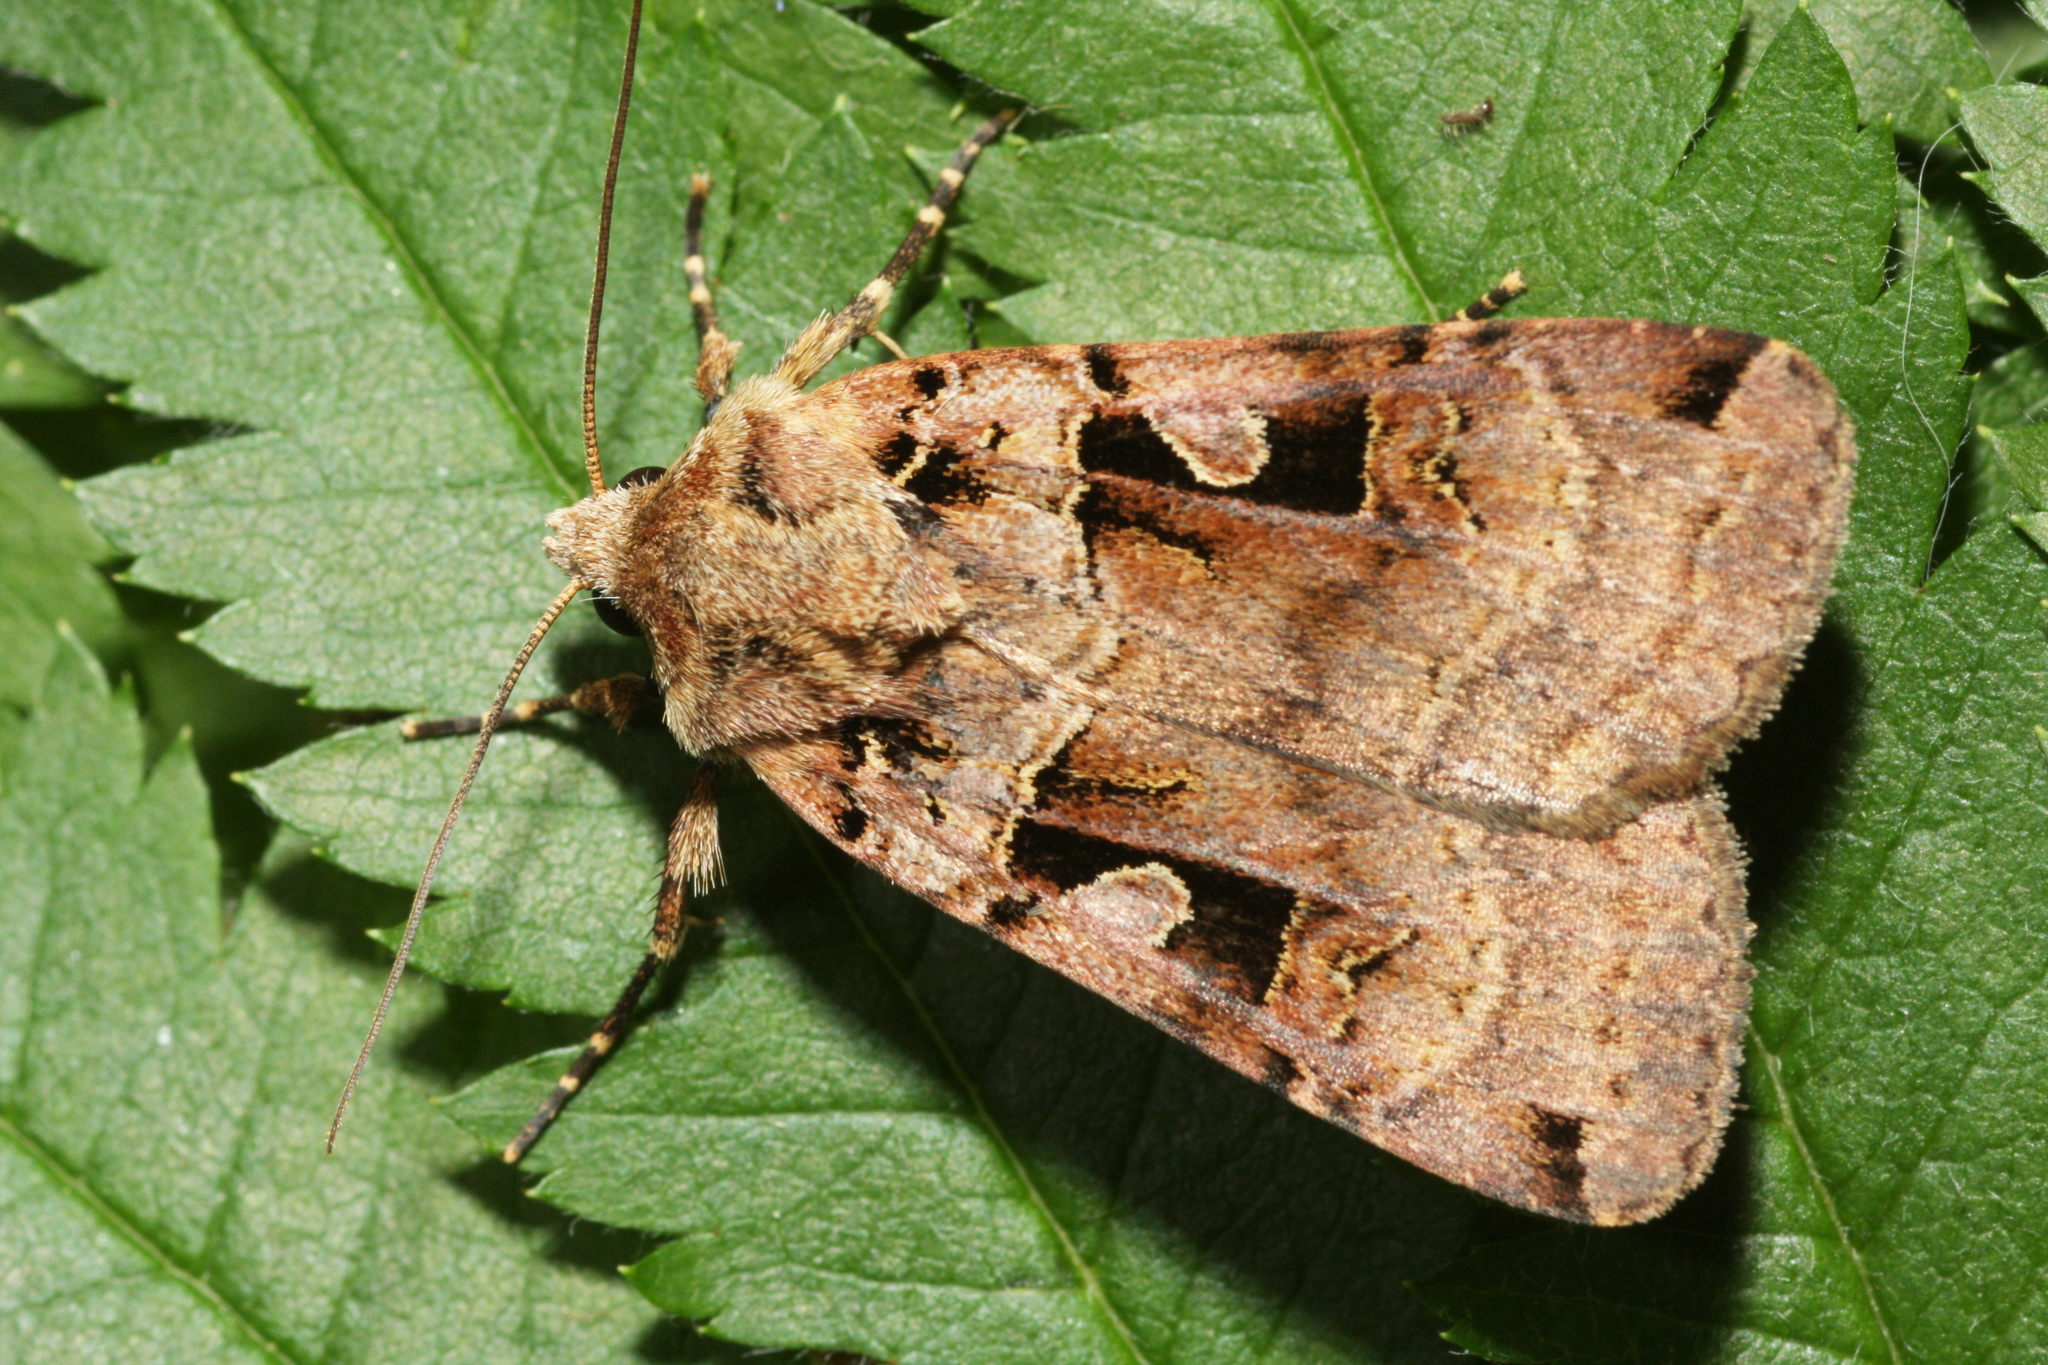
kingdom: Animalia
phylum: Arthropoda
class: Insecta
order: Lepidoptera
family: Noctuidae
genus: Xestia
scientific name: Xestia triangulum
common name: Double square-spot
